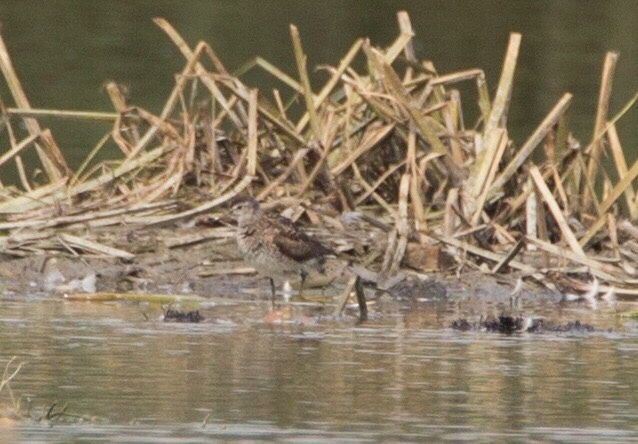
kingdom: Animalia
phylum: Chordata
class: Aves
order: Charadriiformes
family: Scolopacidae
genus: Tringa
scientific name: Tringa glareola
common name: Wood sandpiper
